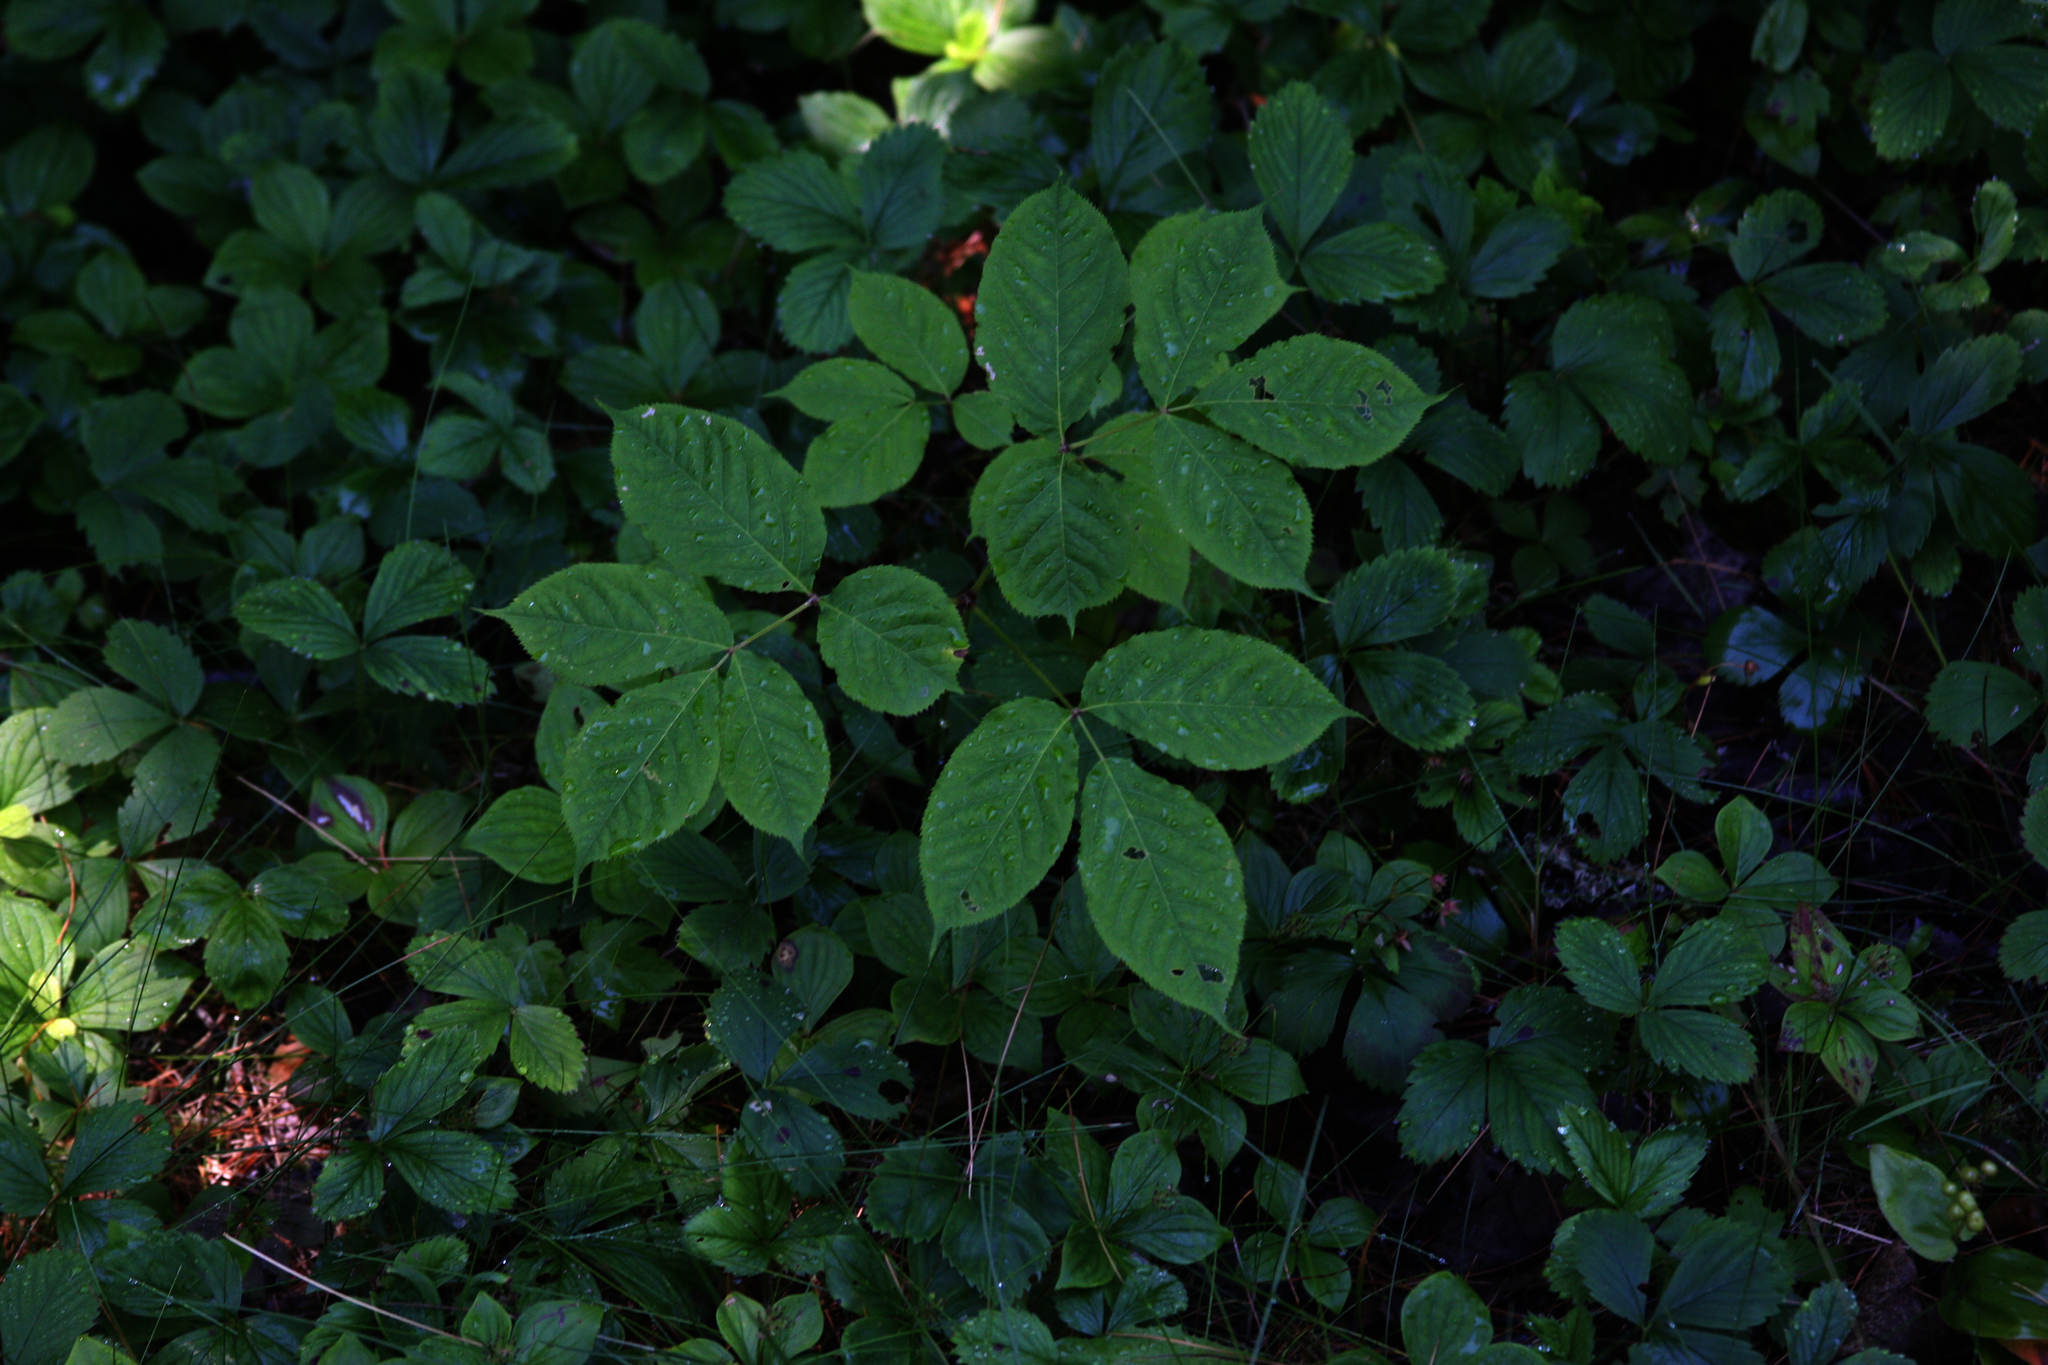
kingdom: Plantae
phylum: Tracheophyta
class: Magnoliopsida
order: Cornales
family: Cornaceae
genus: Cornus
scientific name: Cornus canadensis
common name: Creeping dogwood
